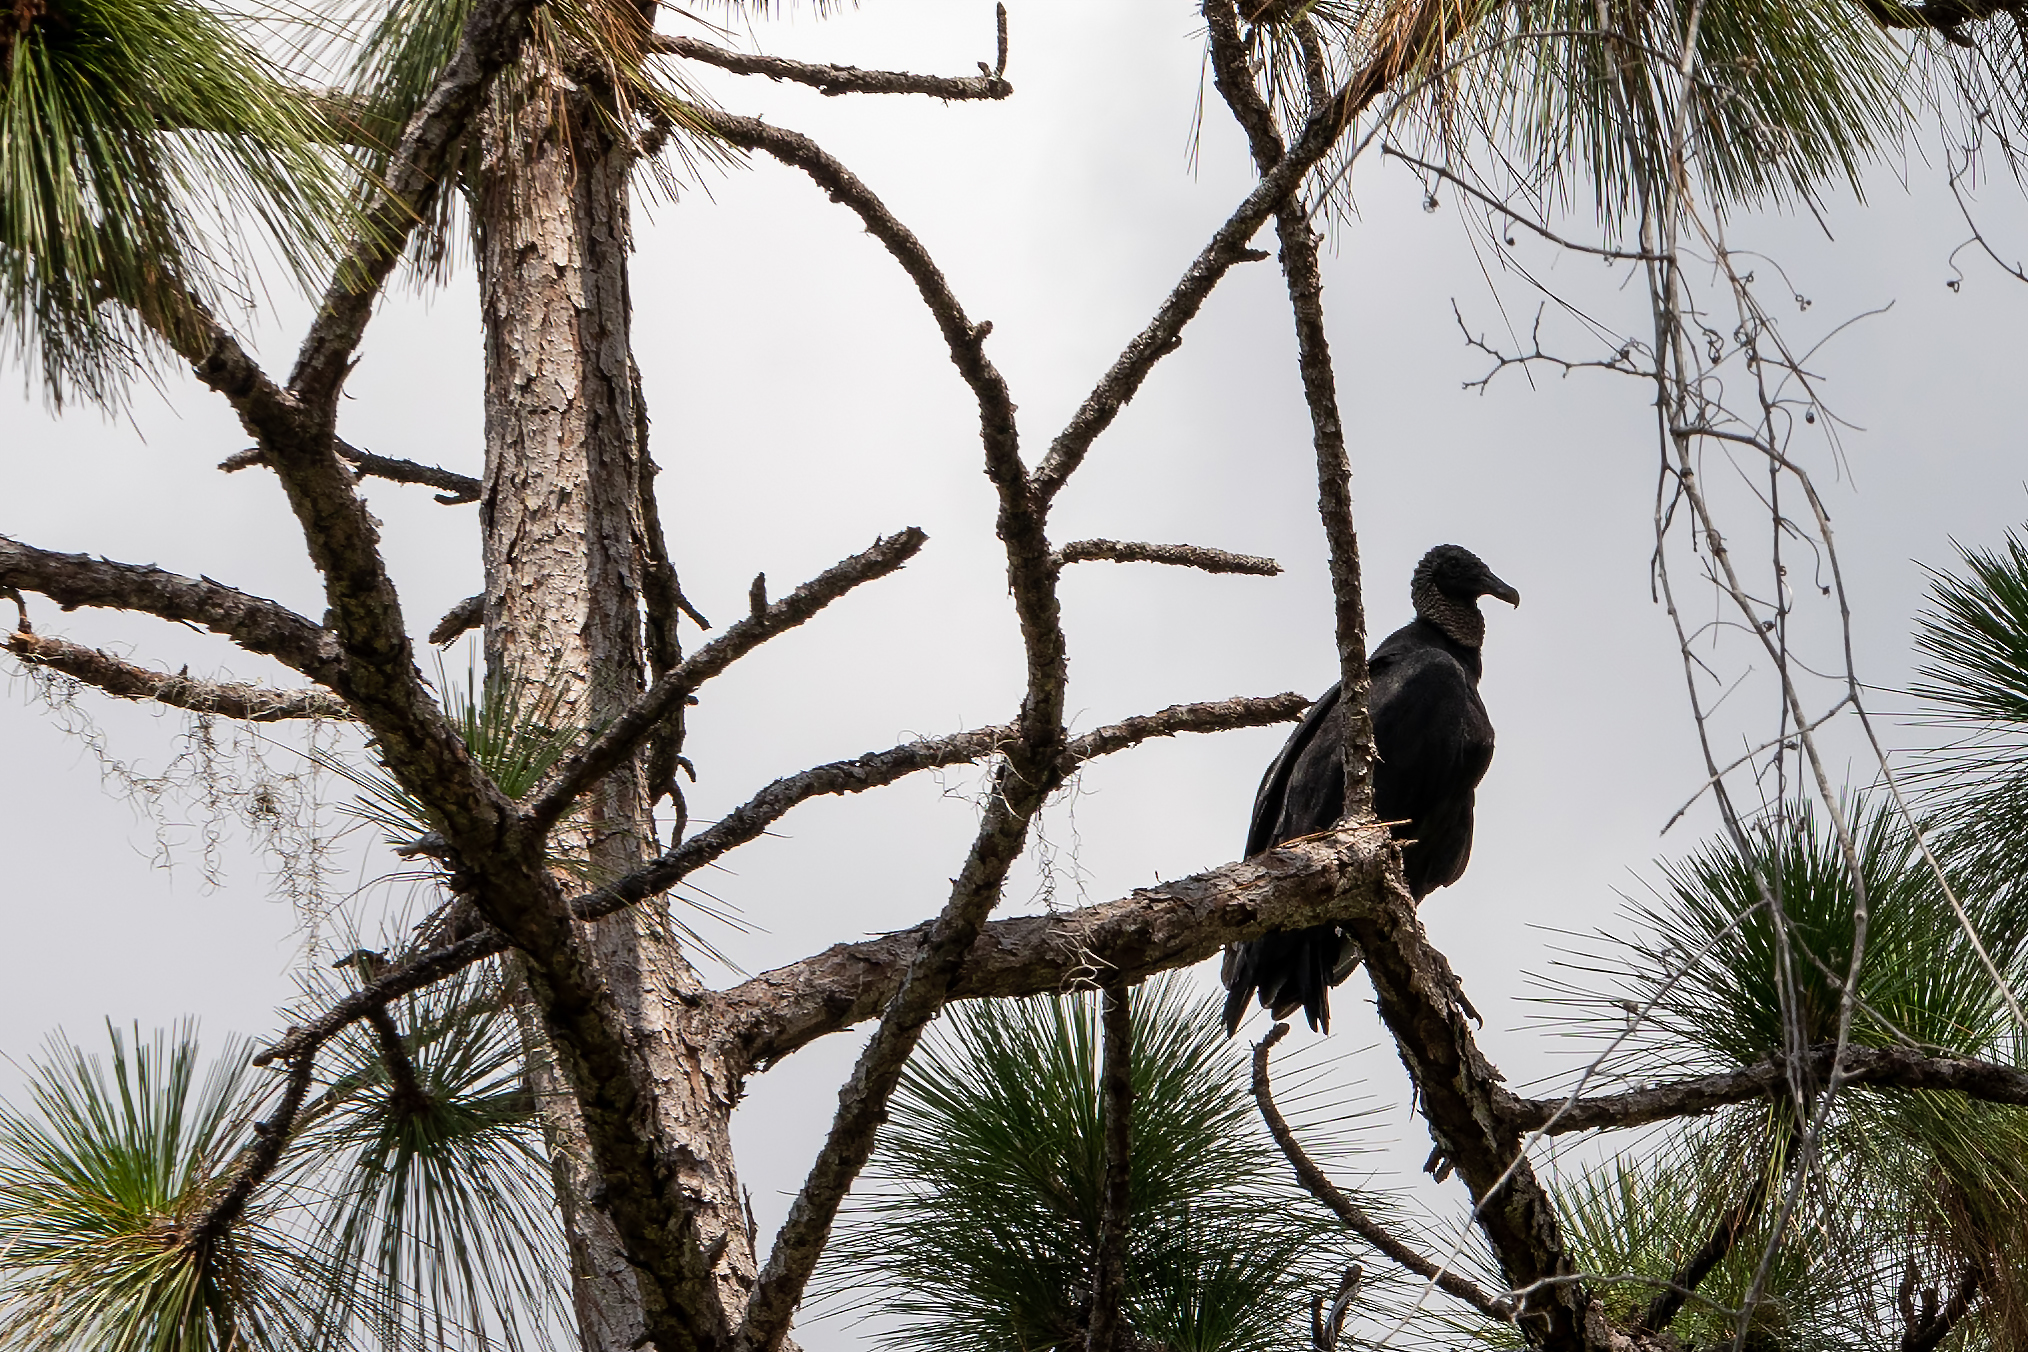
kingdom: Animalia
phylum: Chordata
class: Aves
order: Accipitriformes
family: Cathartidae
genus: Coragyps
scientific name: Coragyps atratus
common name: Black vulture
